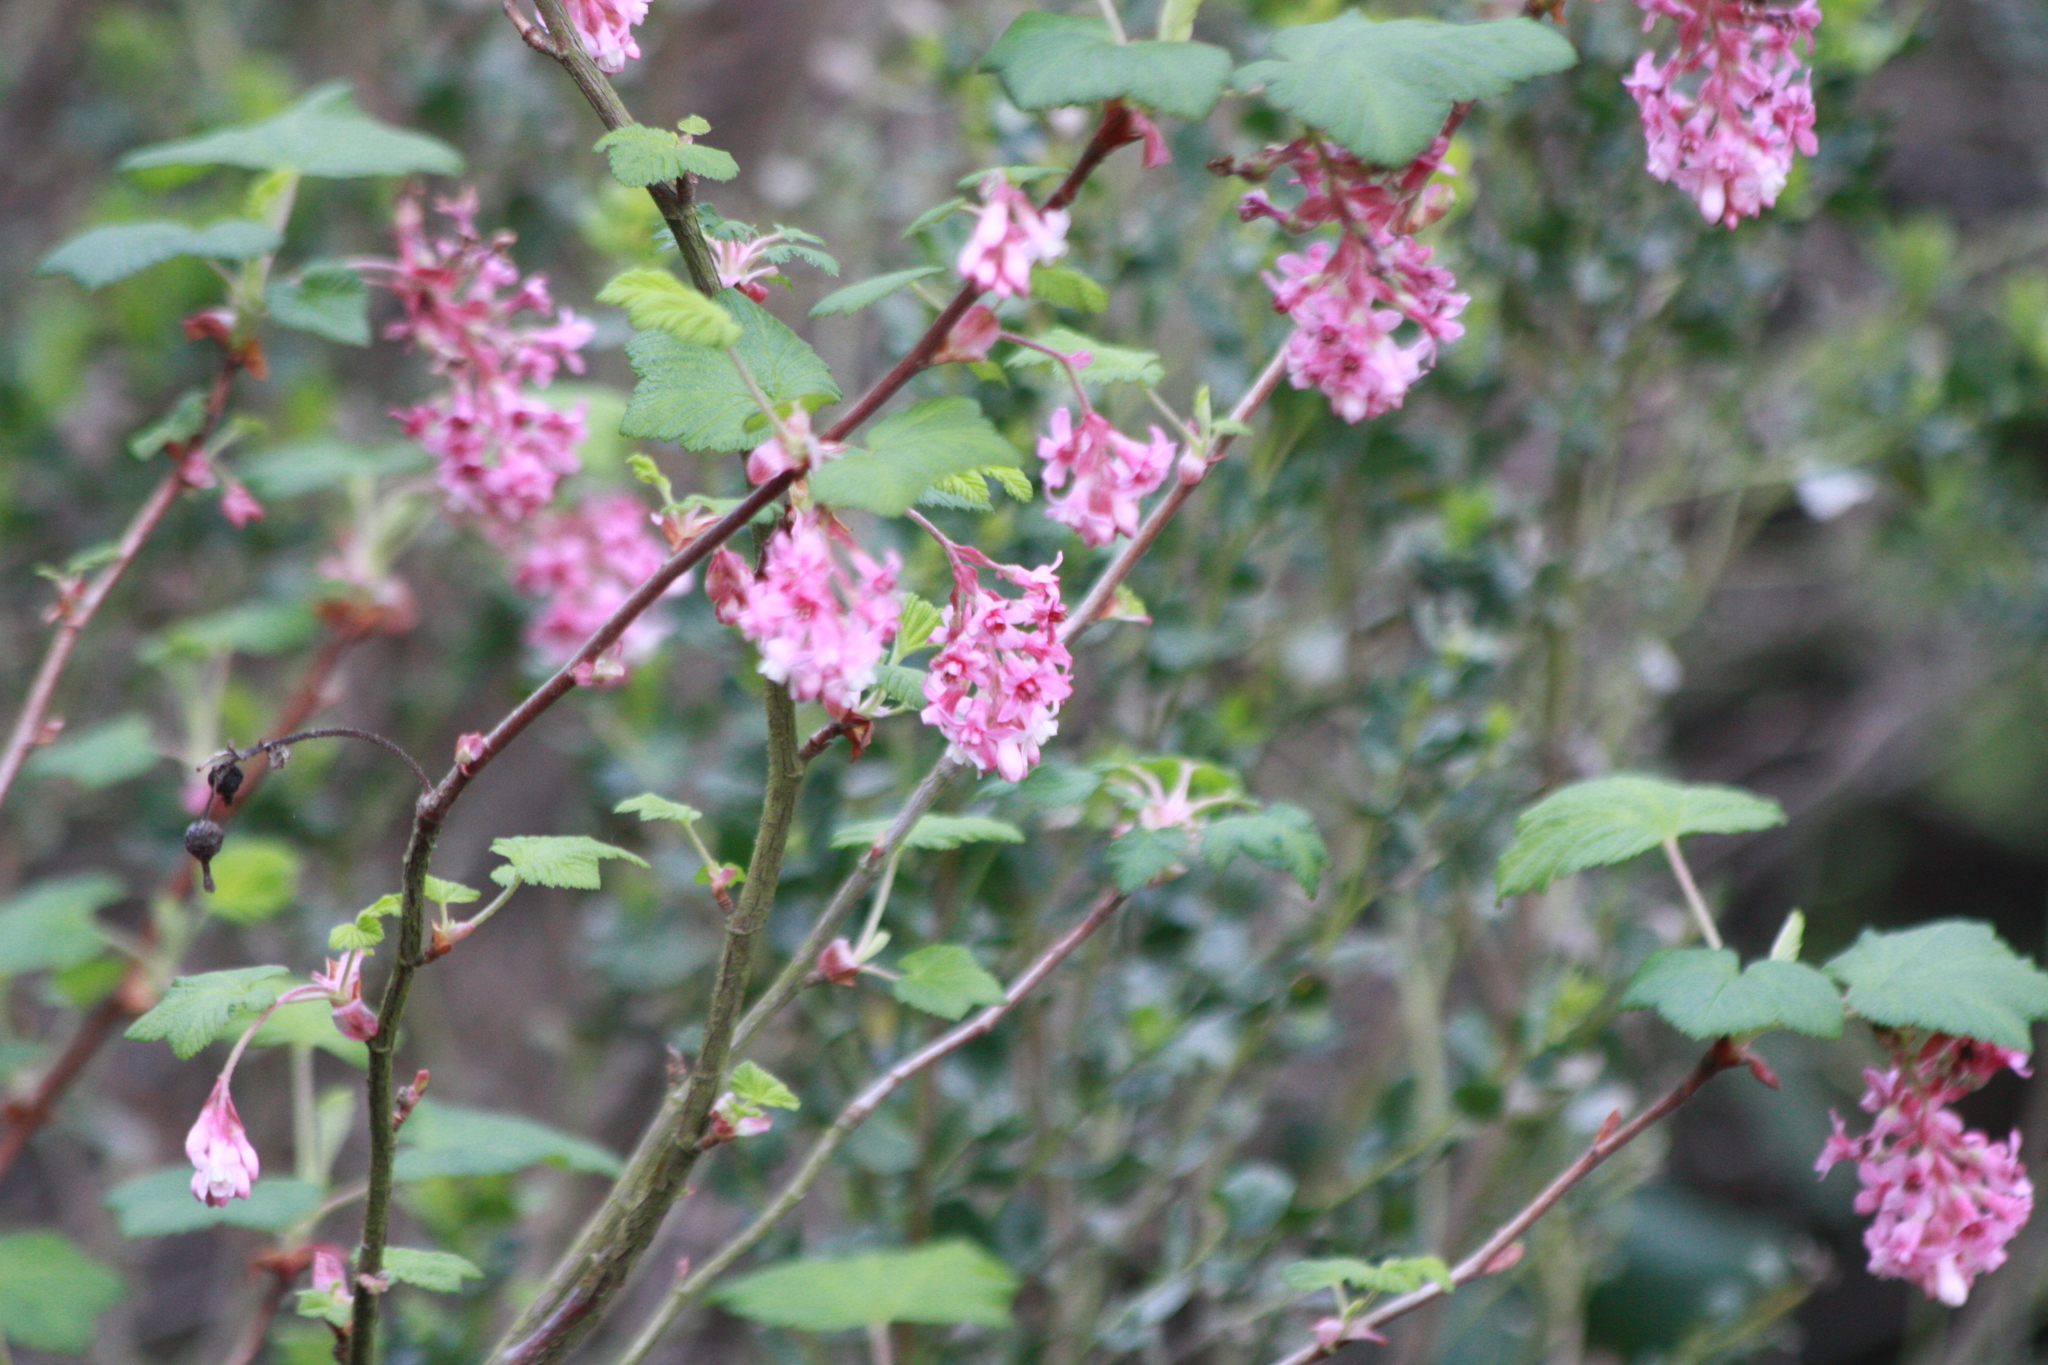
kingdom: Plantae
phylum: Tracheophyta
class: Magnoliopsida
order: Saxifragales
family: Grossulariaceae
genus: Ribes
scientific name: Ribes sanguineum
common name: Flowering currant
